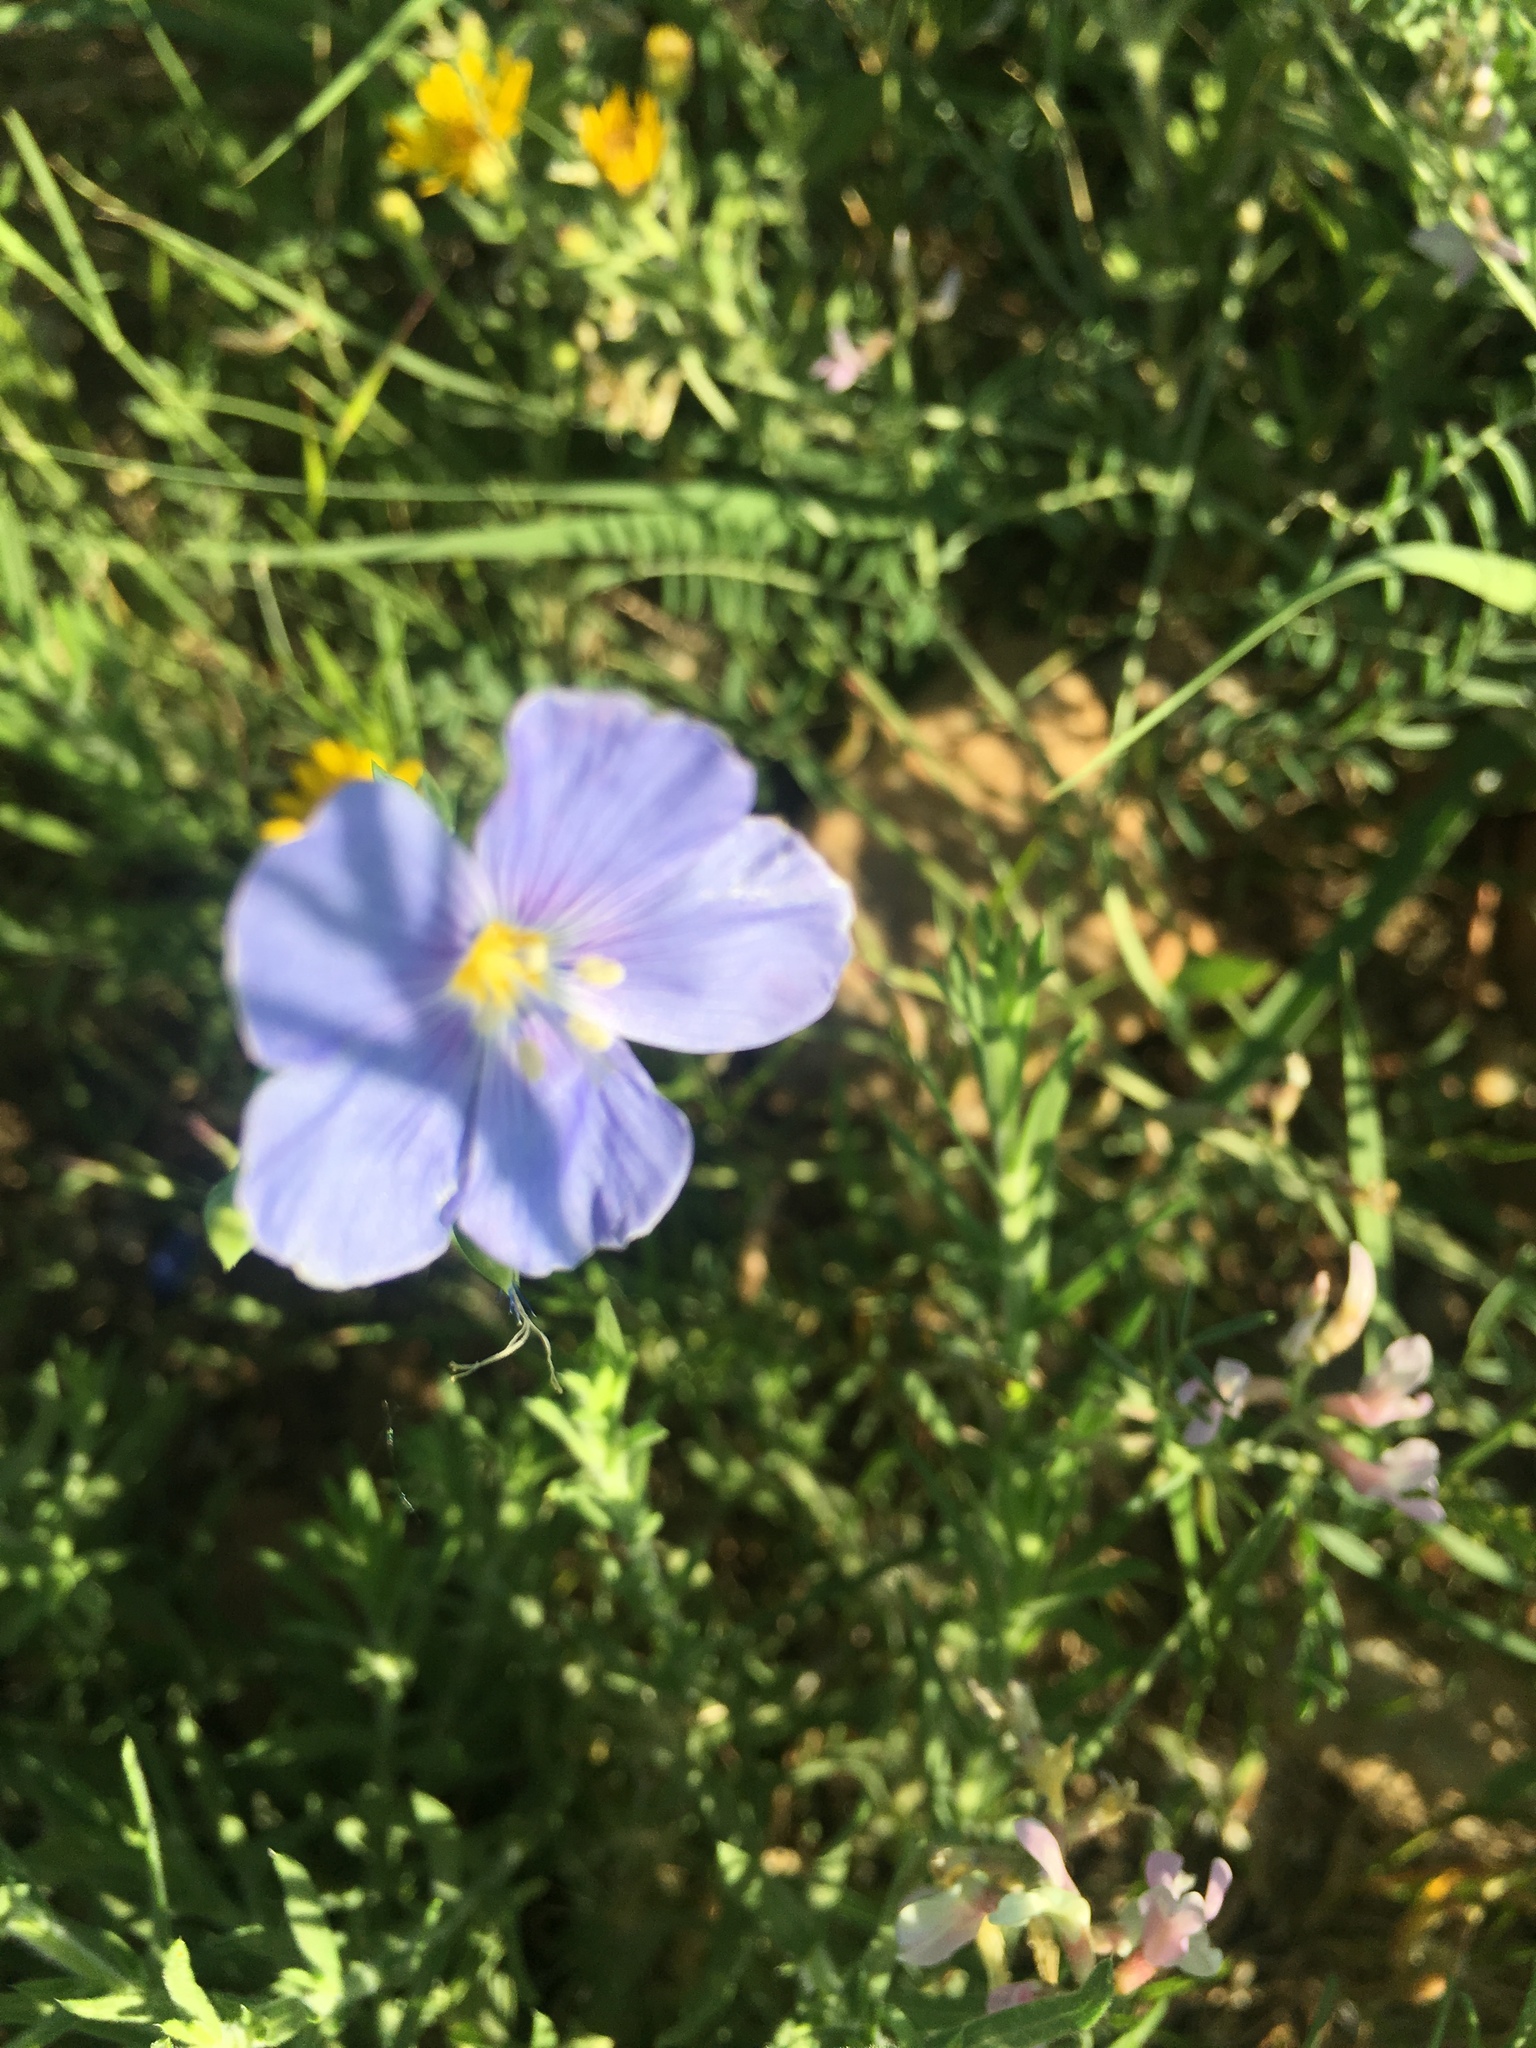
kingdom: Plantae
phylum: Tracheophyta
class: Magnoliopsida
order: Malpighiales
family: Linaceae
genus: Linum
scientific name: Linum lewisii
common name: Prairie flax
